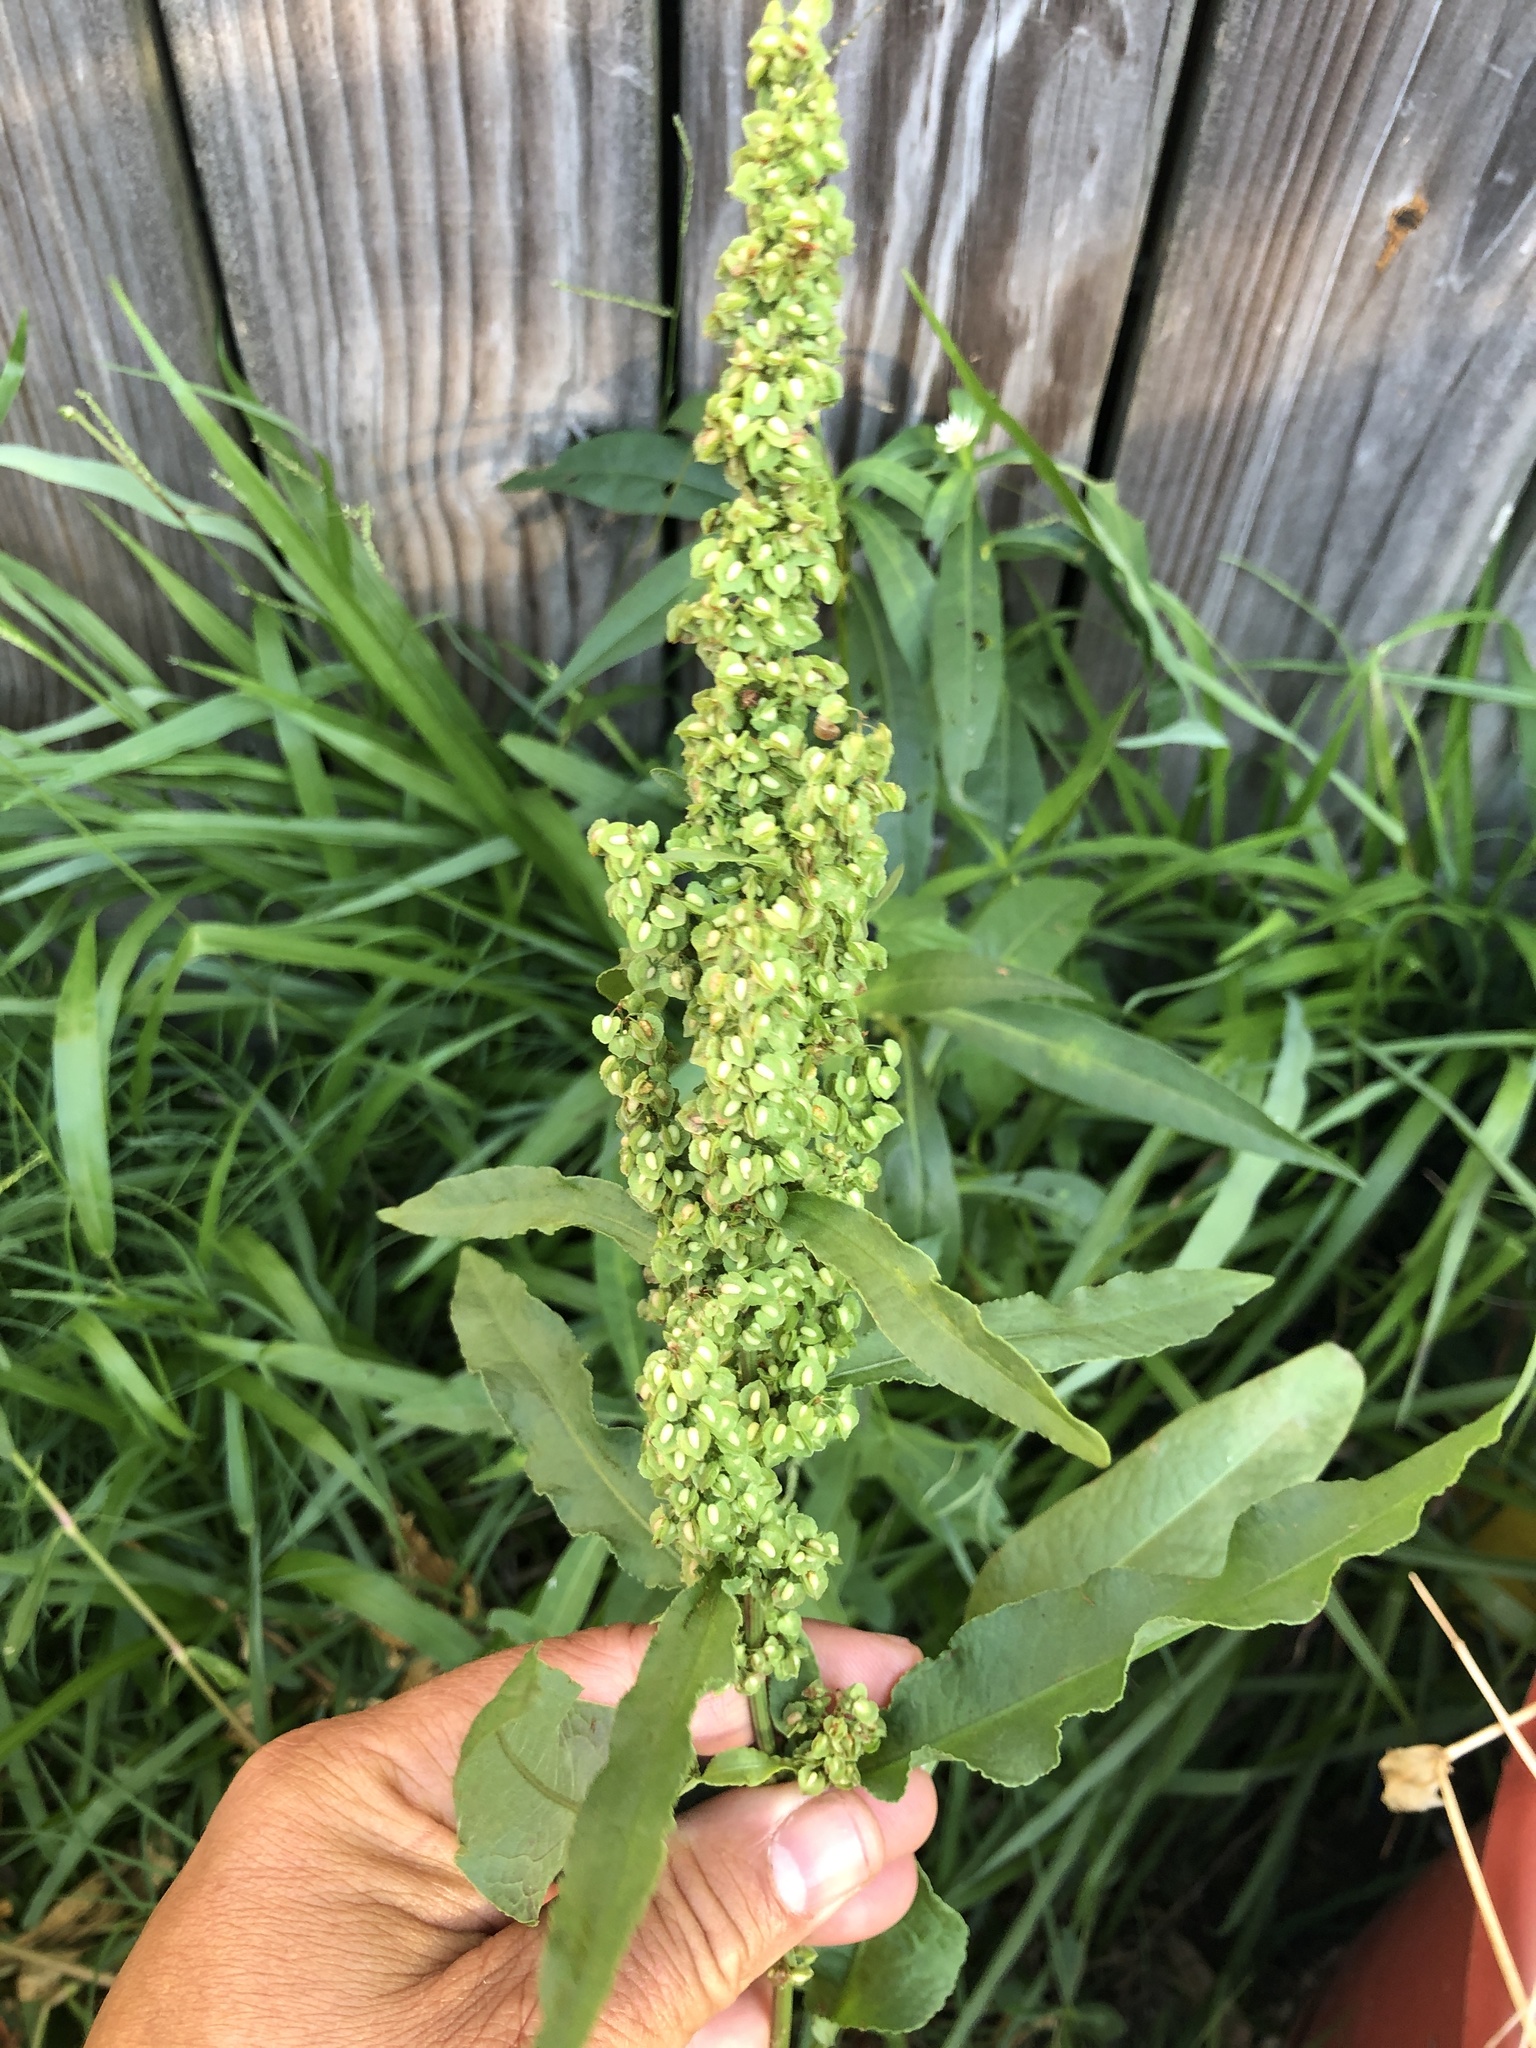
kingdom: Plantae
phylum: Tracheophyta
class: Magnoliopsida
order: Caryophyllales
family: Polygonaceae
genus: Rumex
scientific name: Rumex crispus
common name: Curled dock
